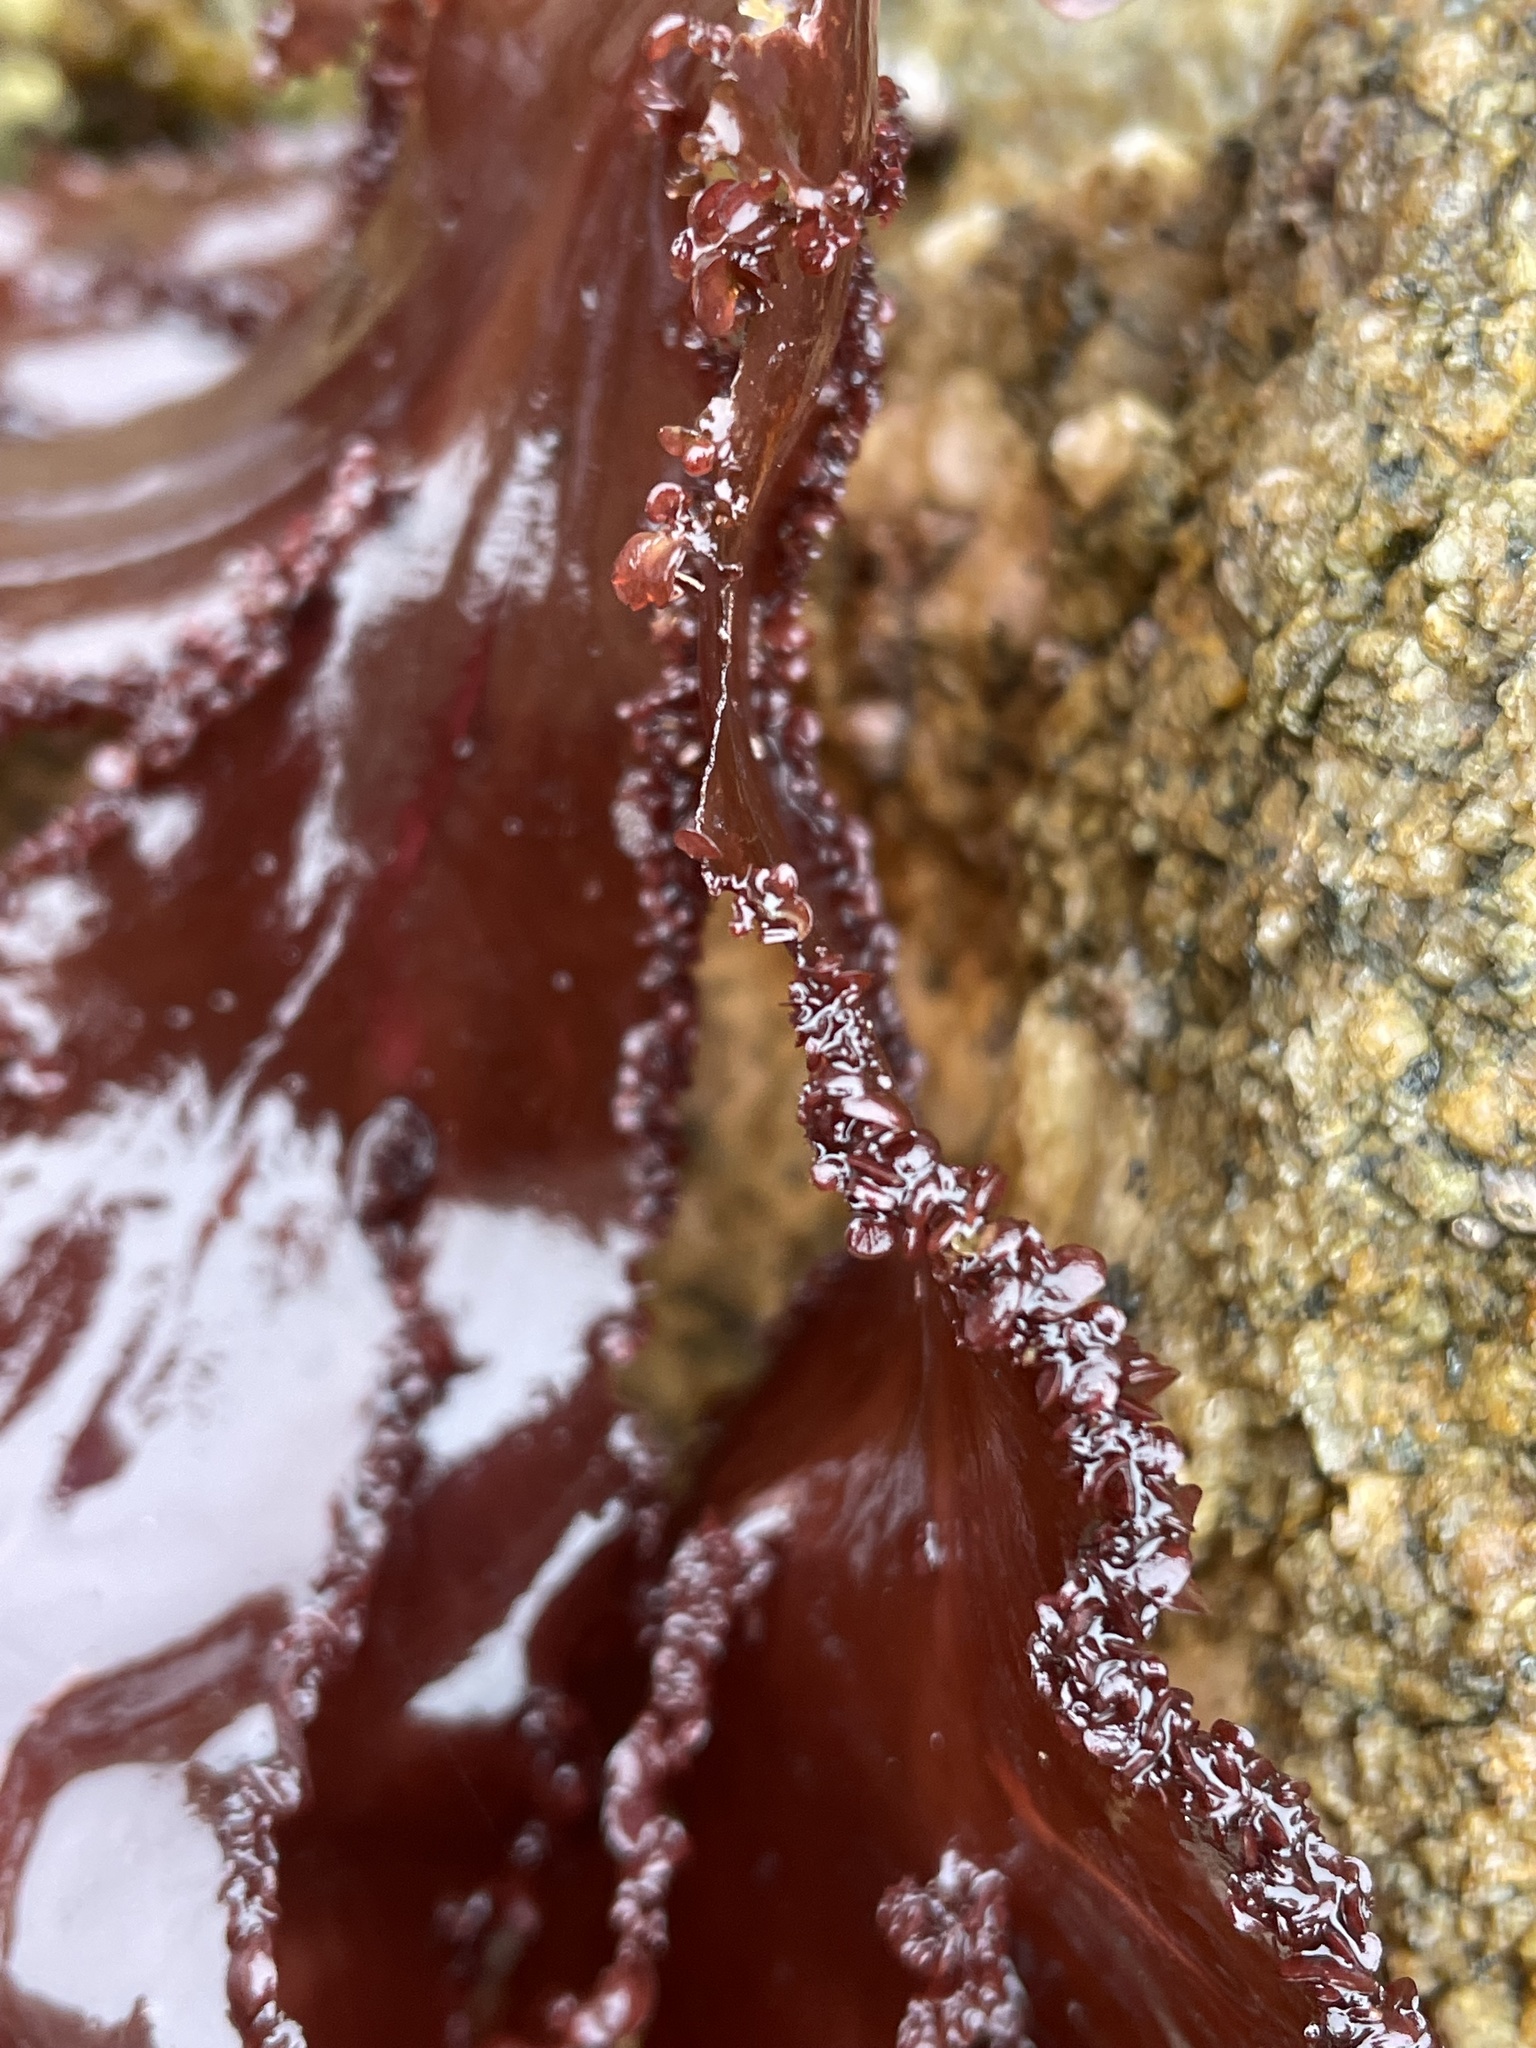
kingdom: Plantae
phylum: Rhodophyta
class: Florideophyceae
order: Ceramiales
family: Delesseriaceae
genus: Cryptopleura
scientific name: Cryptopleura ruprechtiana
